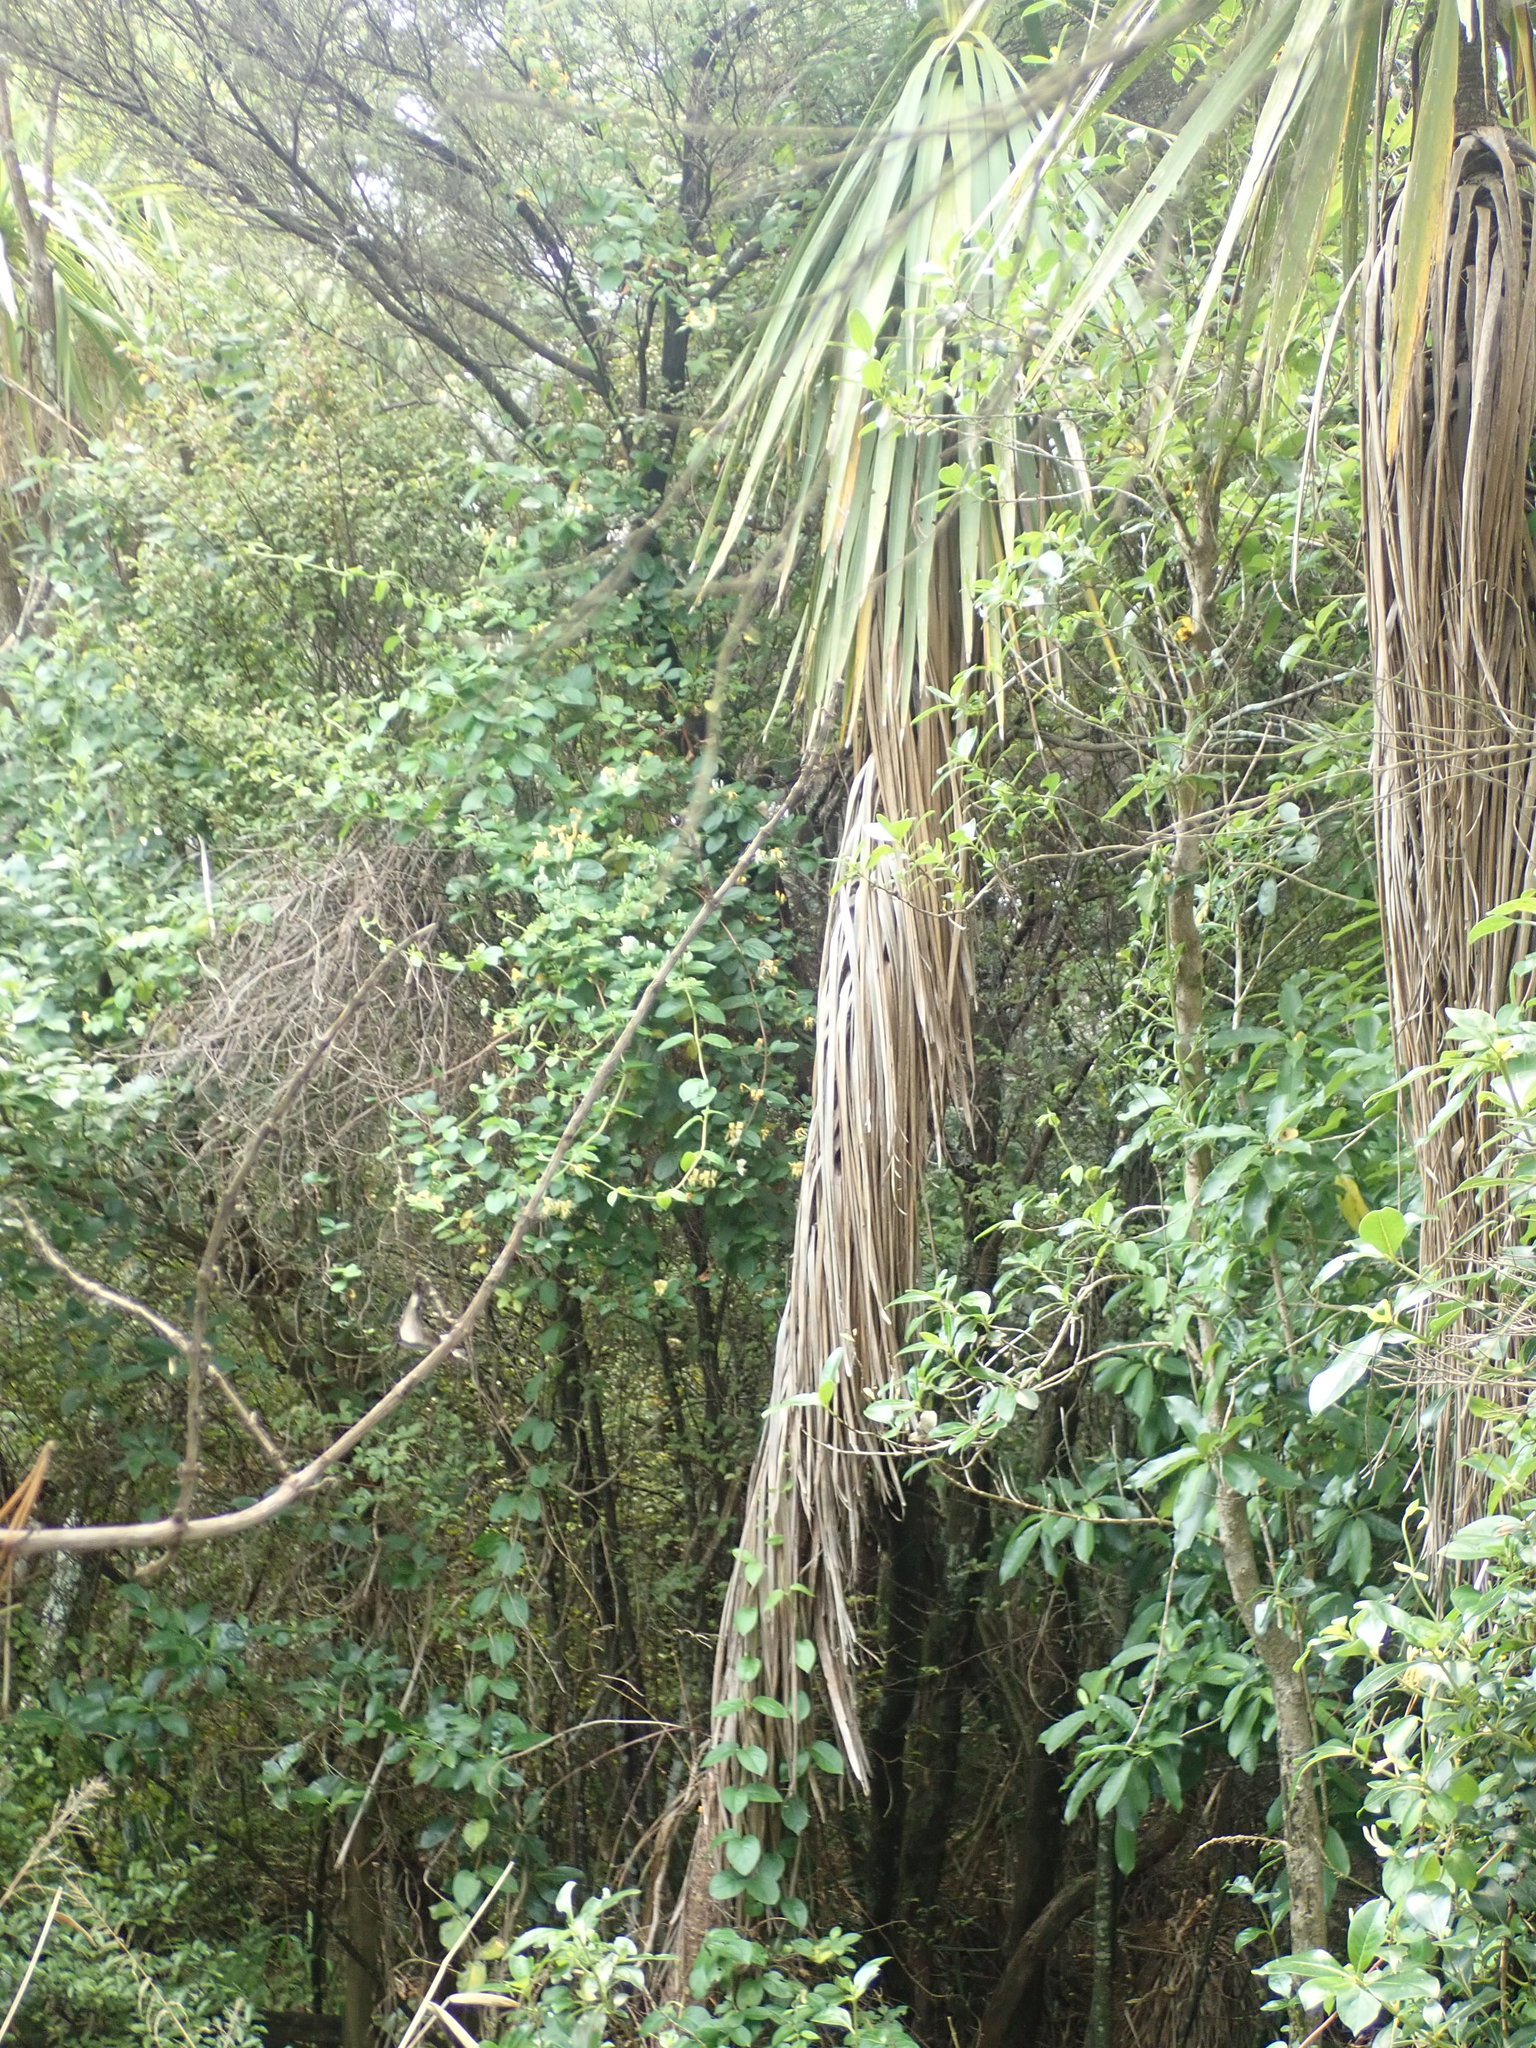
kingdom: Plantae
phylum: Tracheophyta
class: Liliopsida
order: Asparagales
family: Asparagaceae
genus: Cordyline
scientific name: Cordyline australis
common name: Cabbage-palm
